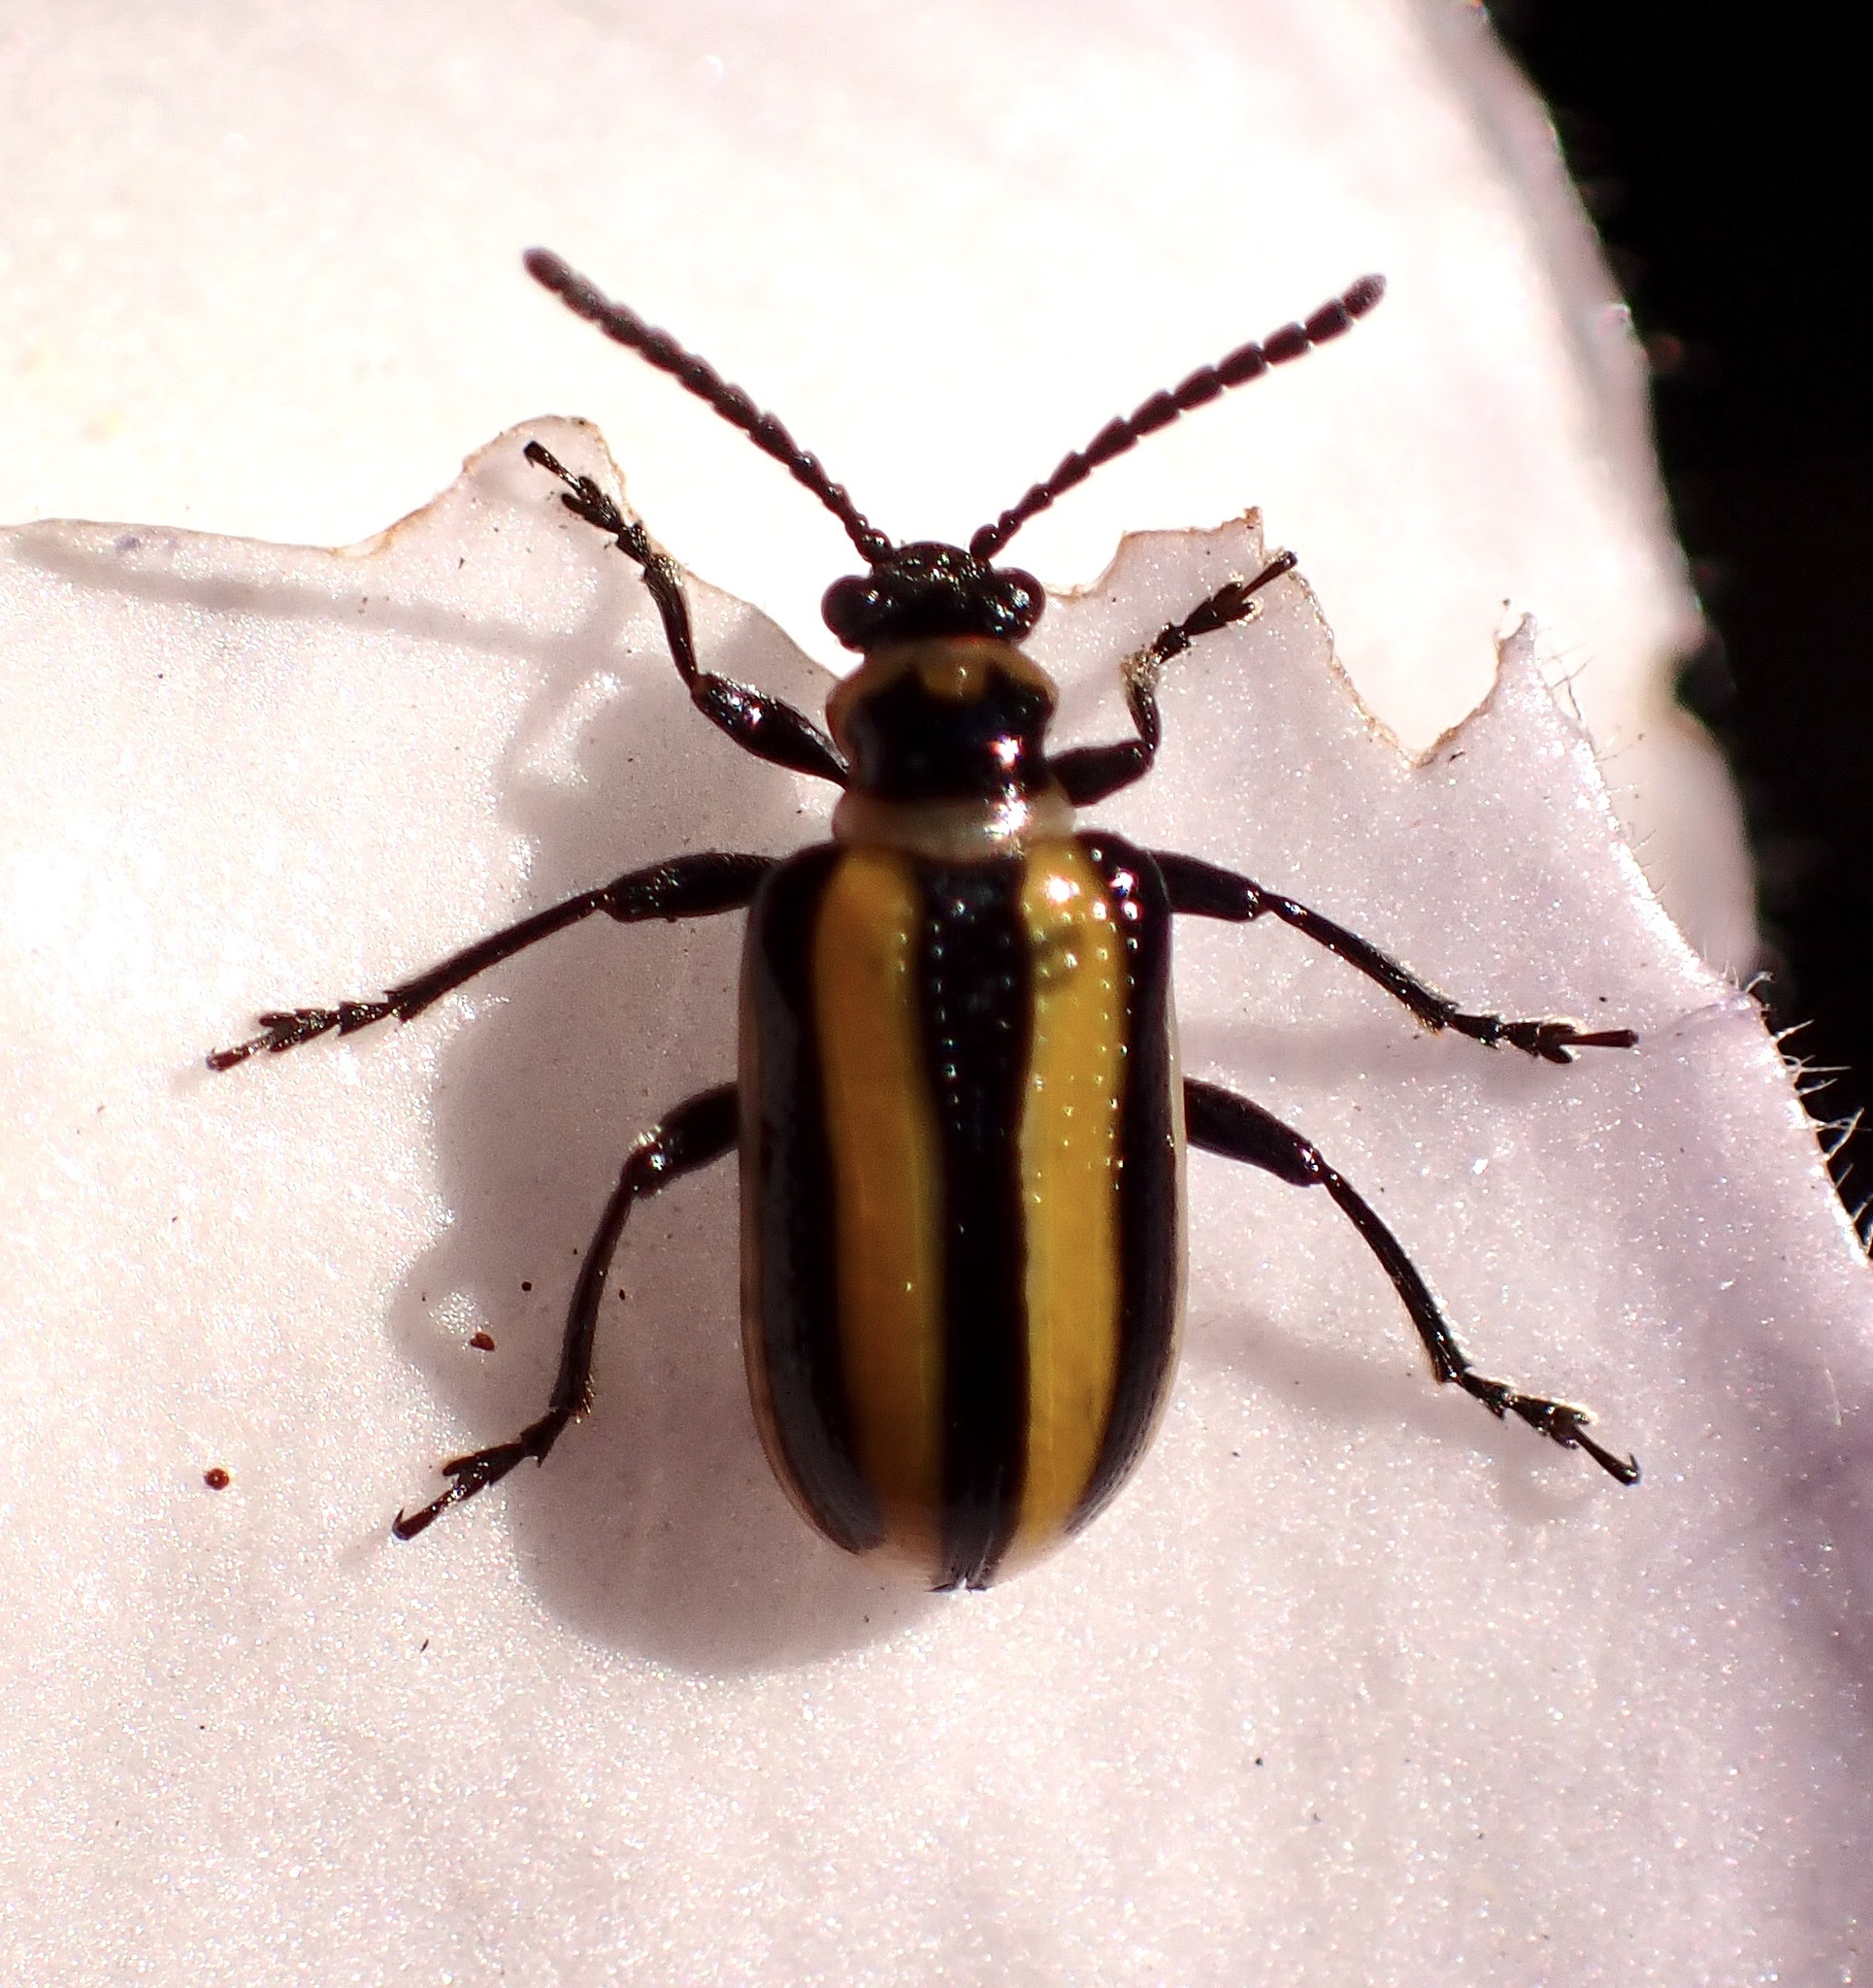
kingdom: Animalia
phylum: Arthropoda
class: Insecta
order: Coleoptera
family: Chrysomelidae
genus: Lema
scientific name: Lema daturaphila
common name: Leaf beetle
